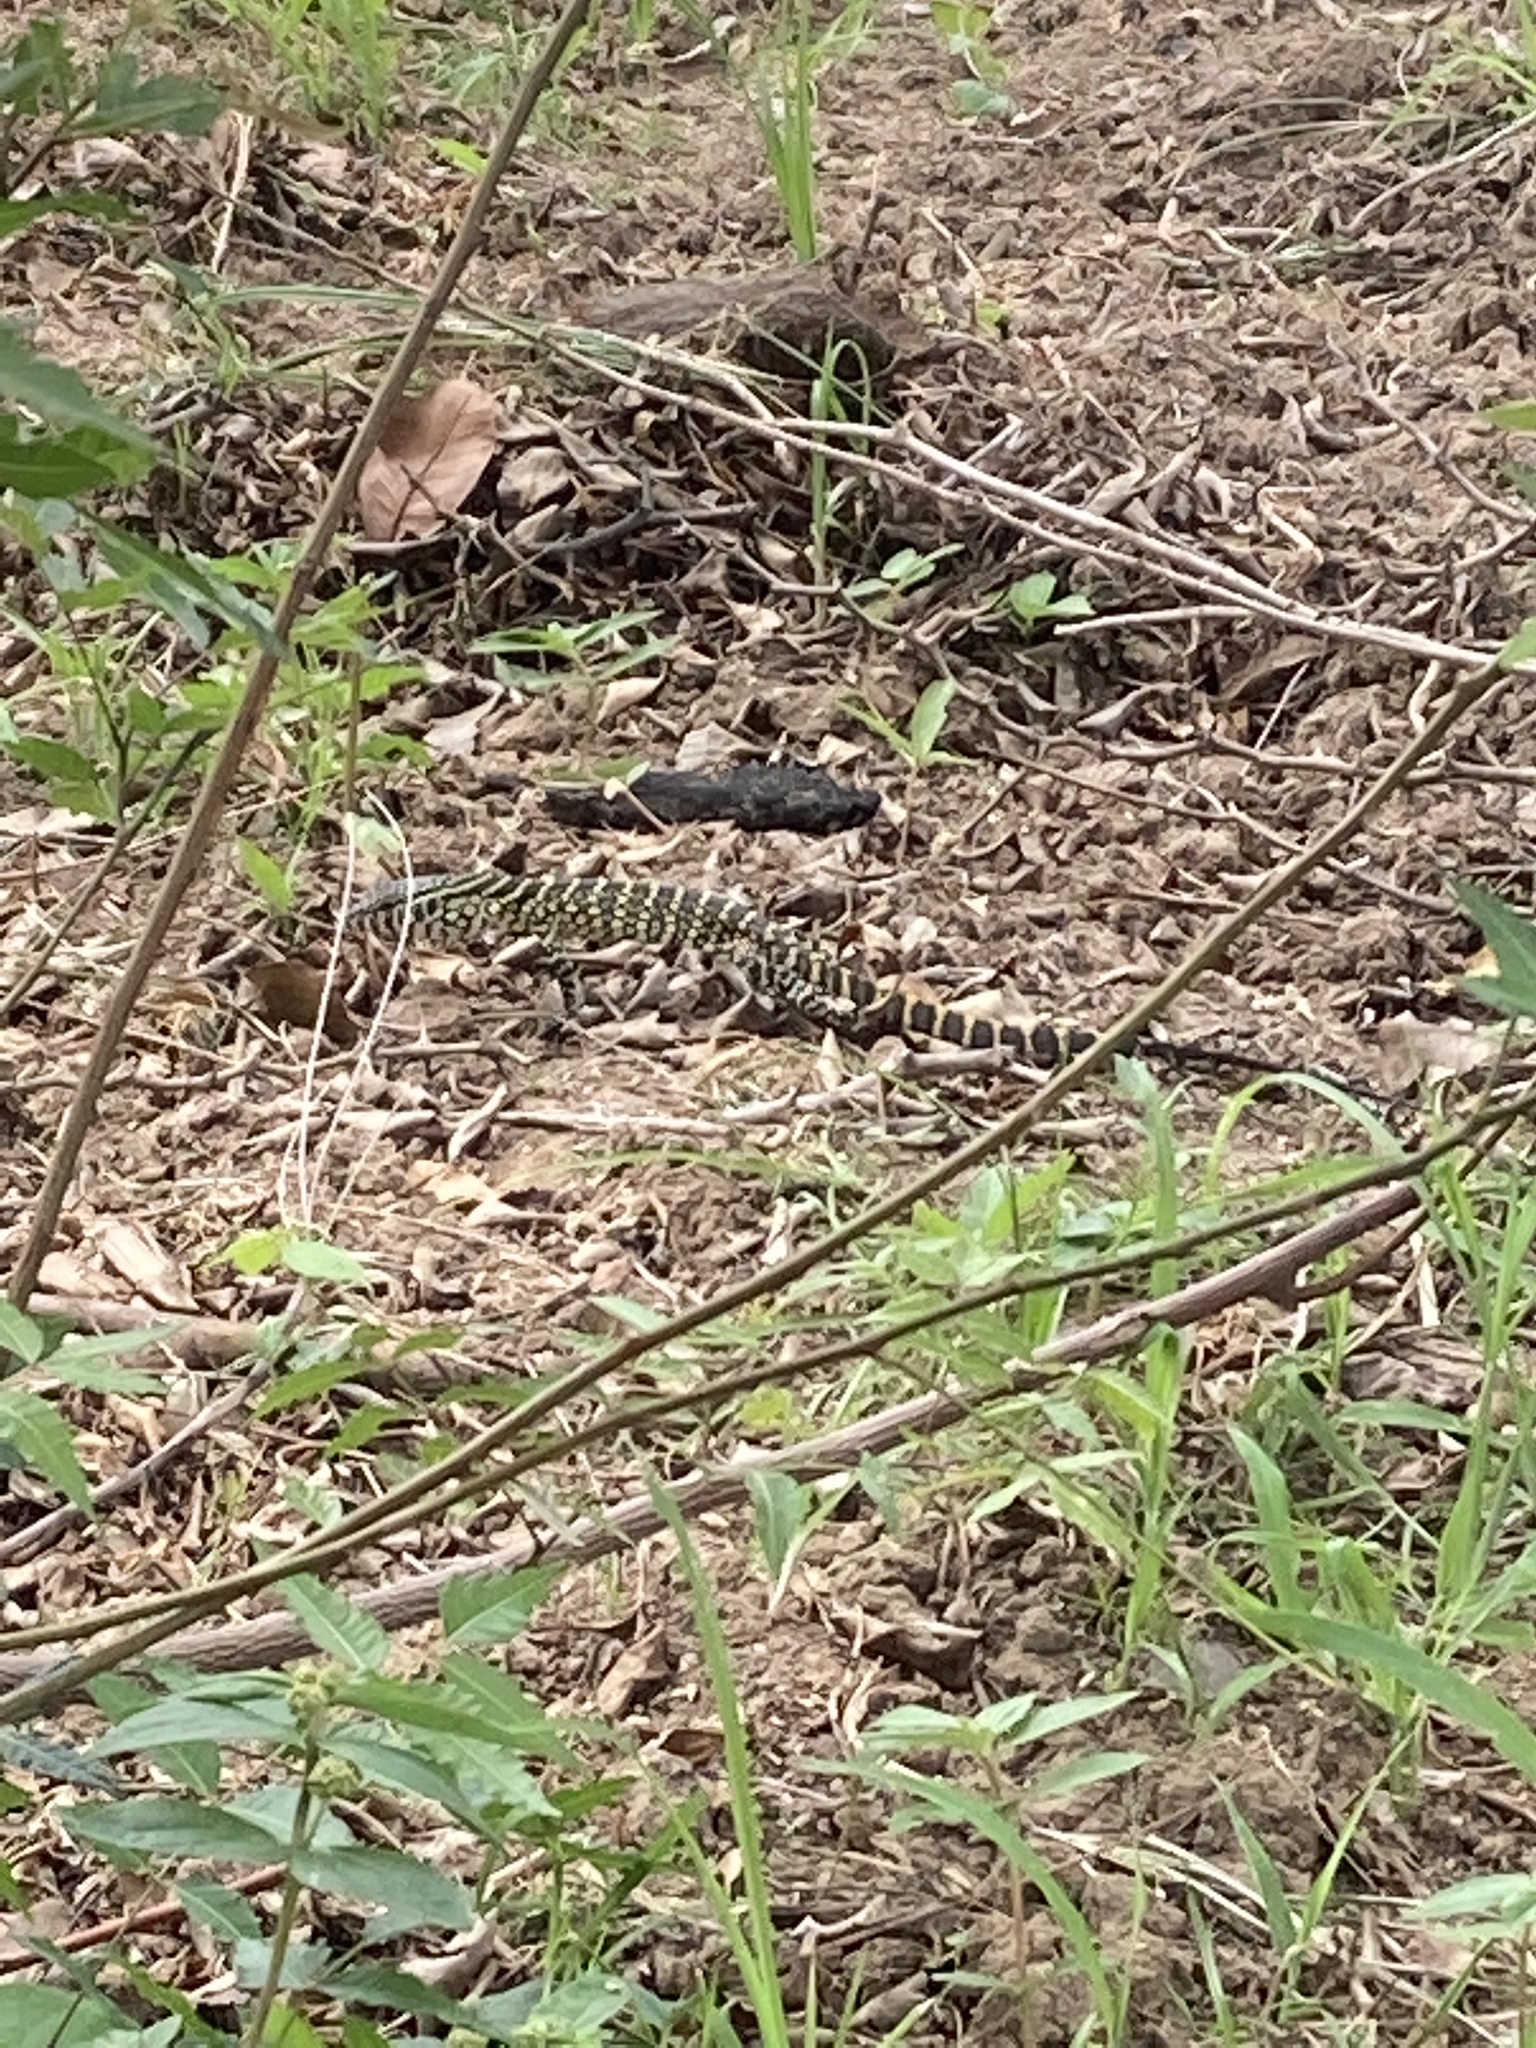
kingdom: Animalia
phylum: Chordata
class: Squamata
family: Varanidae
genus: Varanus
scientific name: Varanus niloticus
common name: Nile monitor
